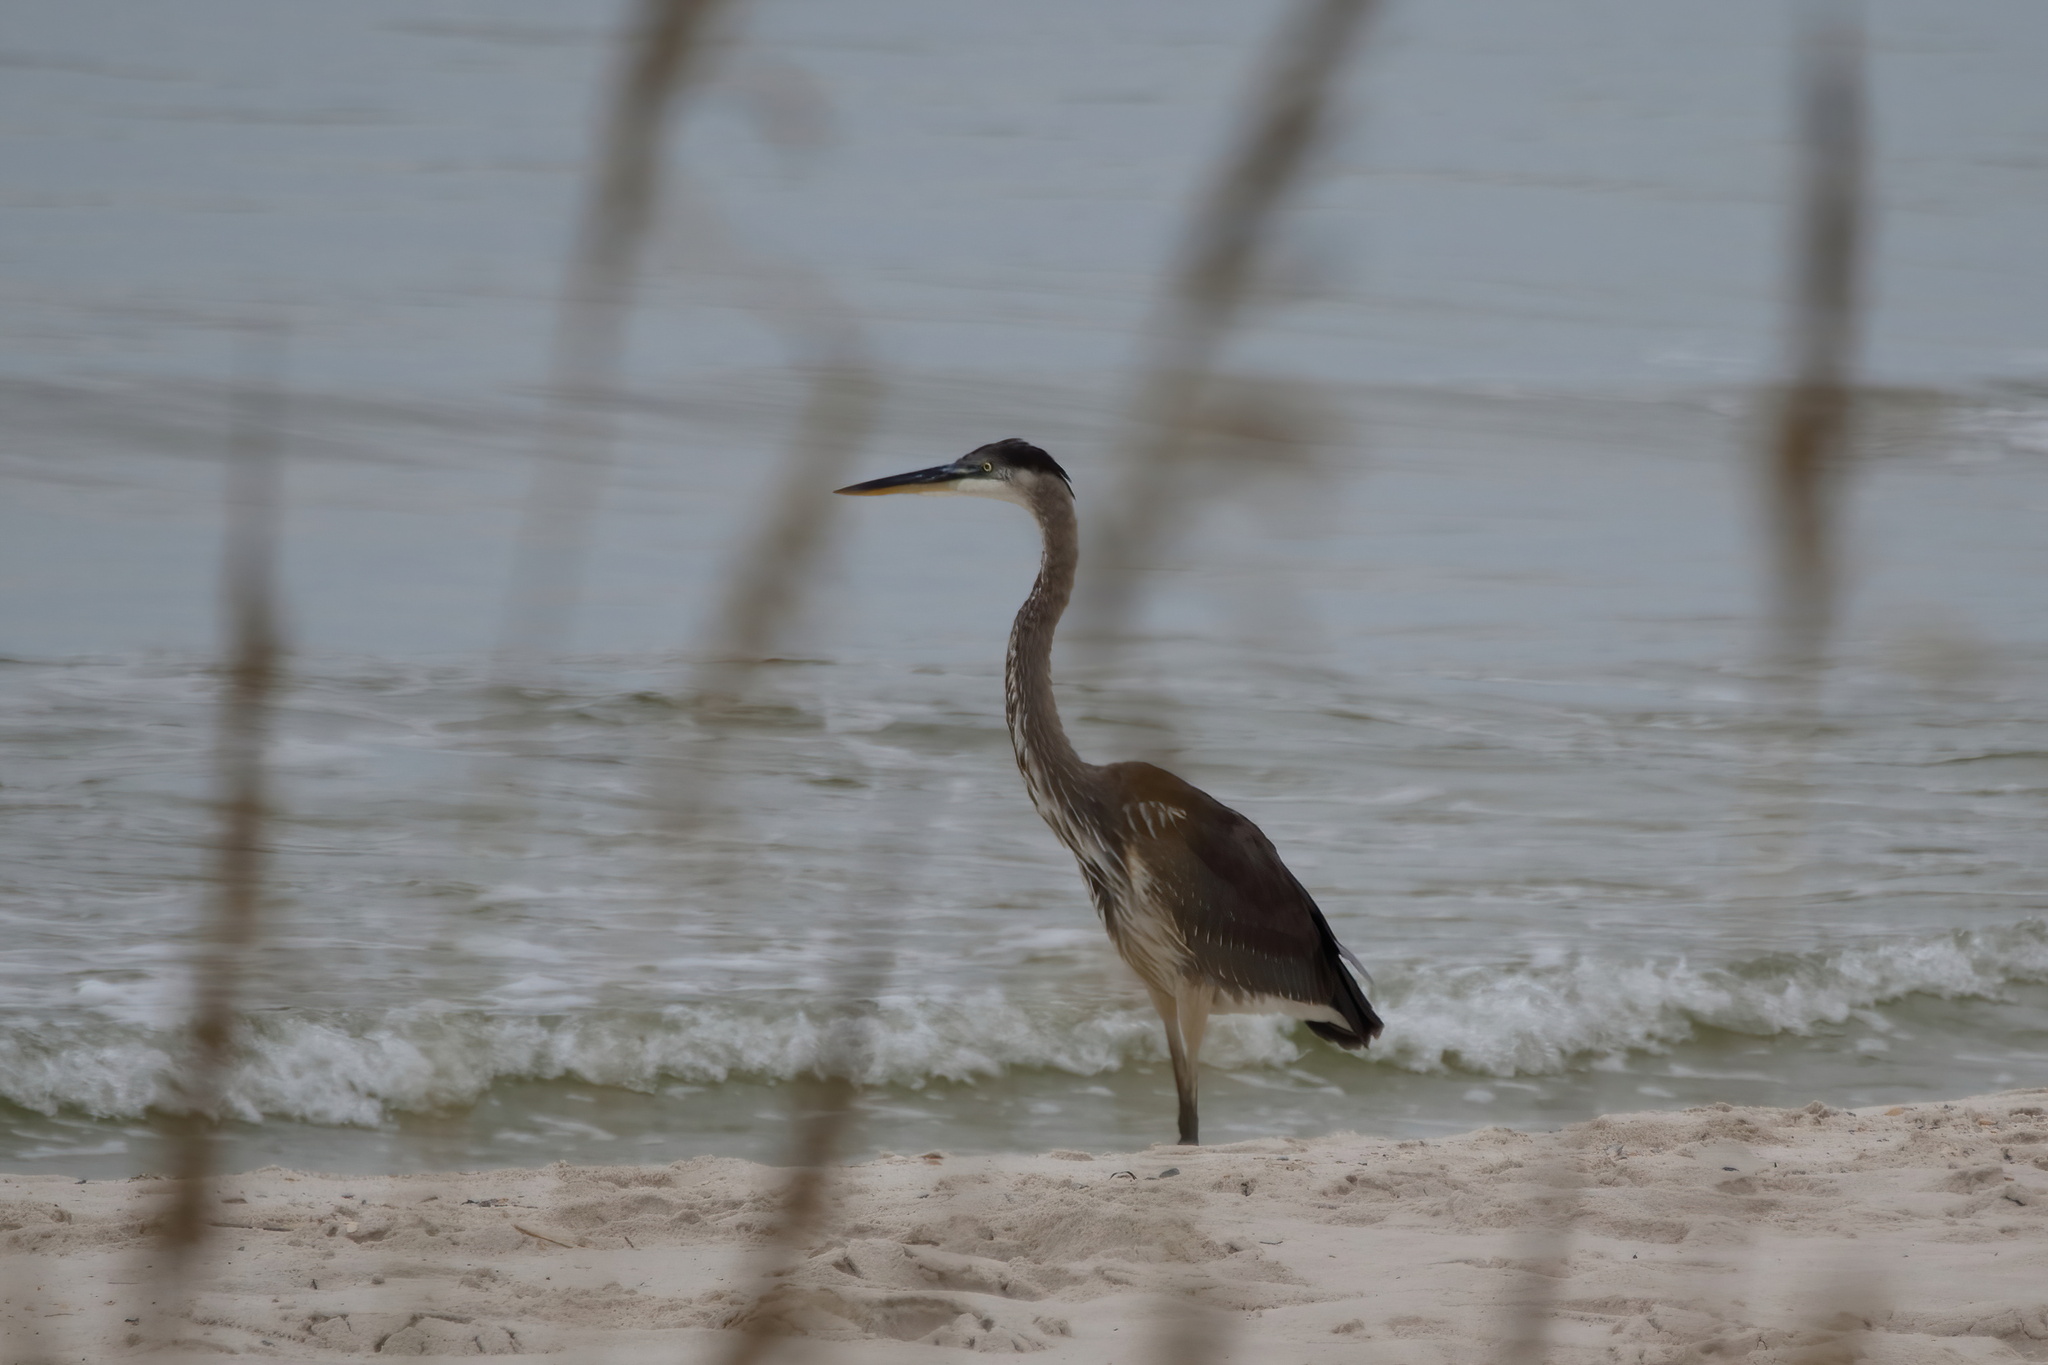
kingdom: Animalia
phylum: Chordata
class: Aves
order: Pelecaniformes
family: Ardeidae
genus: Ardea
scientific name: Ardea herodias
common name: Great blue heron
